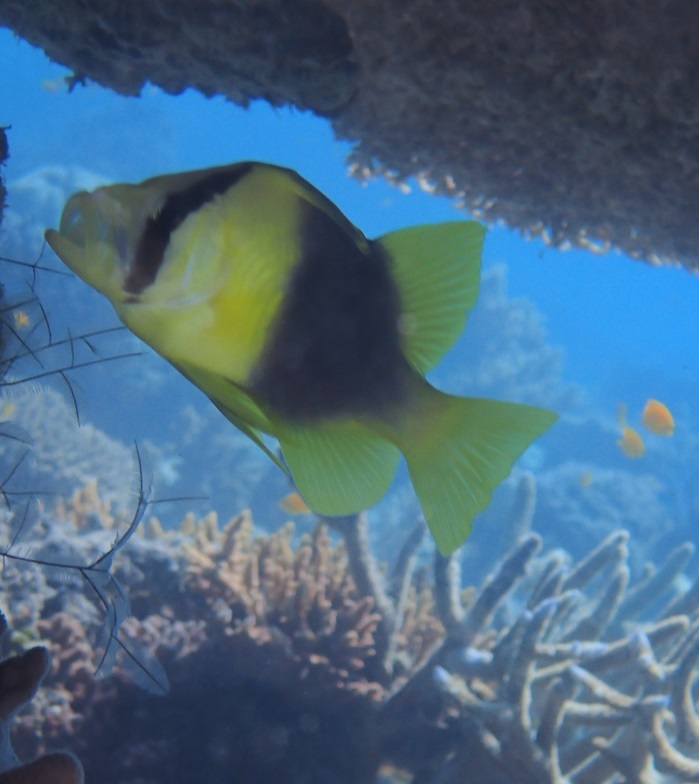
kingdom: Animalia
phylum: Chordata
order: Perciformes
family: Serranidae
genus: Diploprion
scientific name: Diploprion bifasciatum
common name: Barred soapfish
